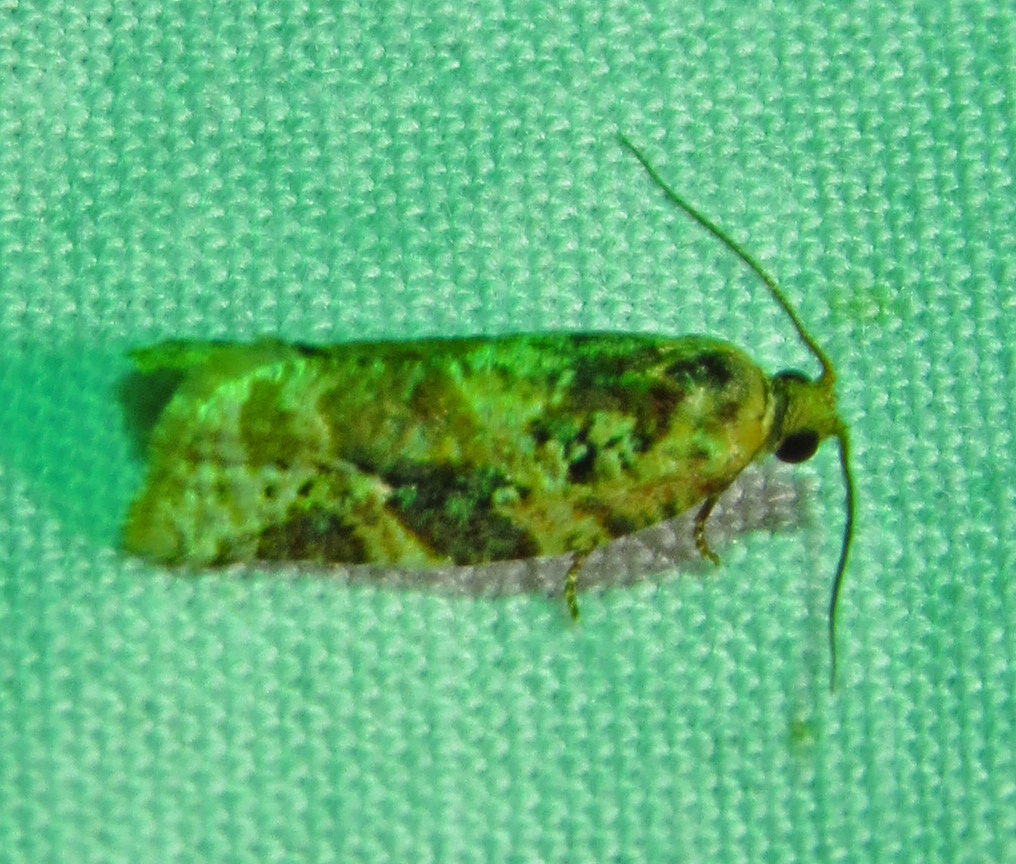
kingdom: Animalia
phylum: Arthropoda
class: Insecta
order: Lepidoptera
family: Tortricidae
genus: Argyrotaenia
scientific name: Argyrotaenia velutinana
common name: Red-banded leafroller moth
